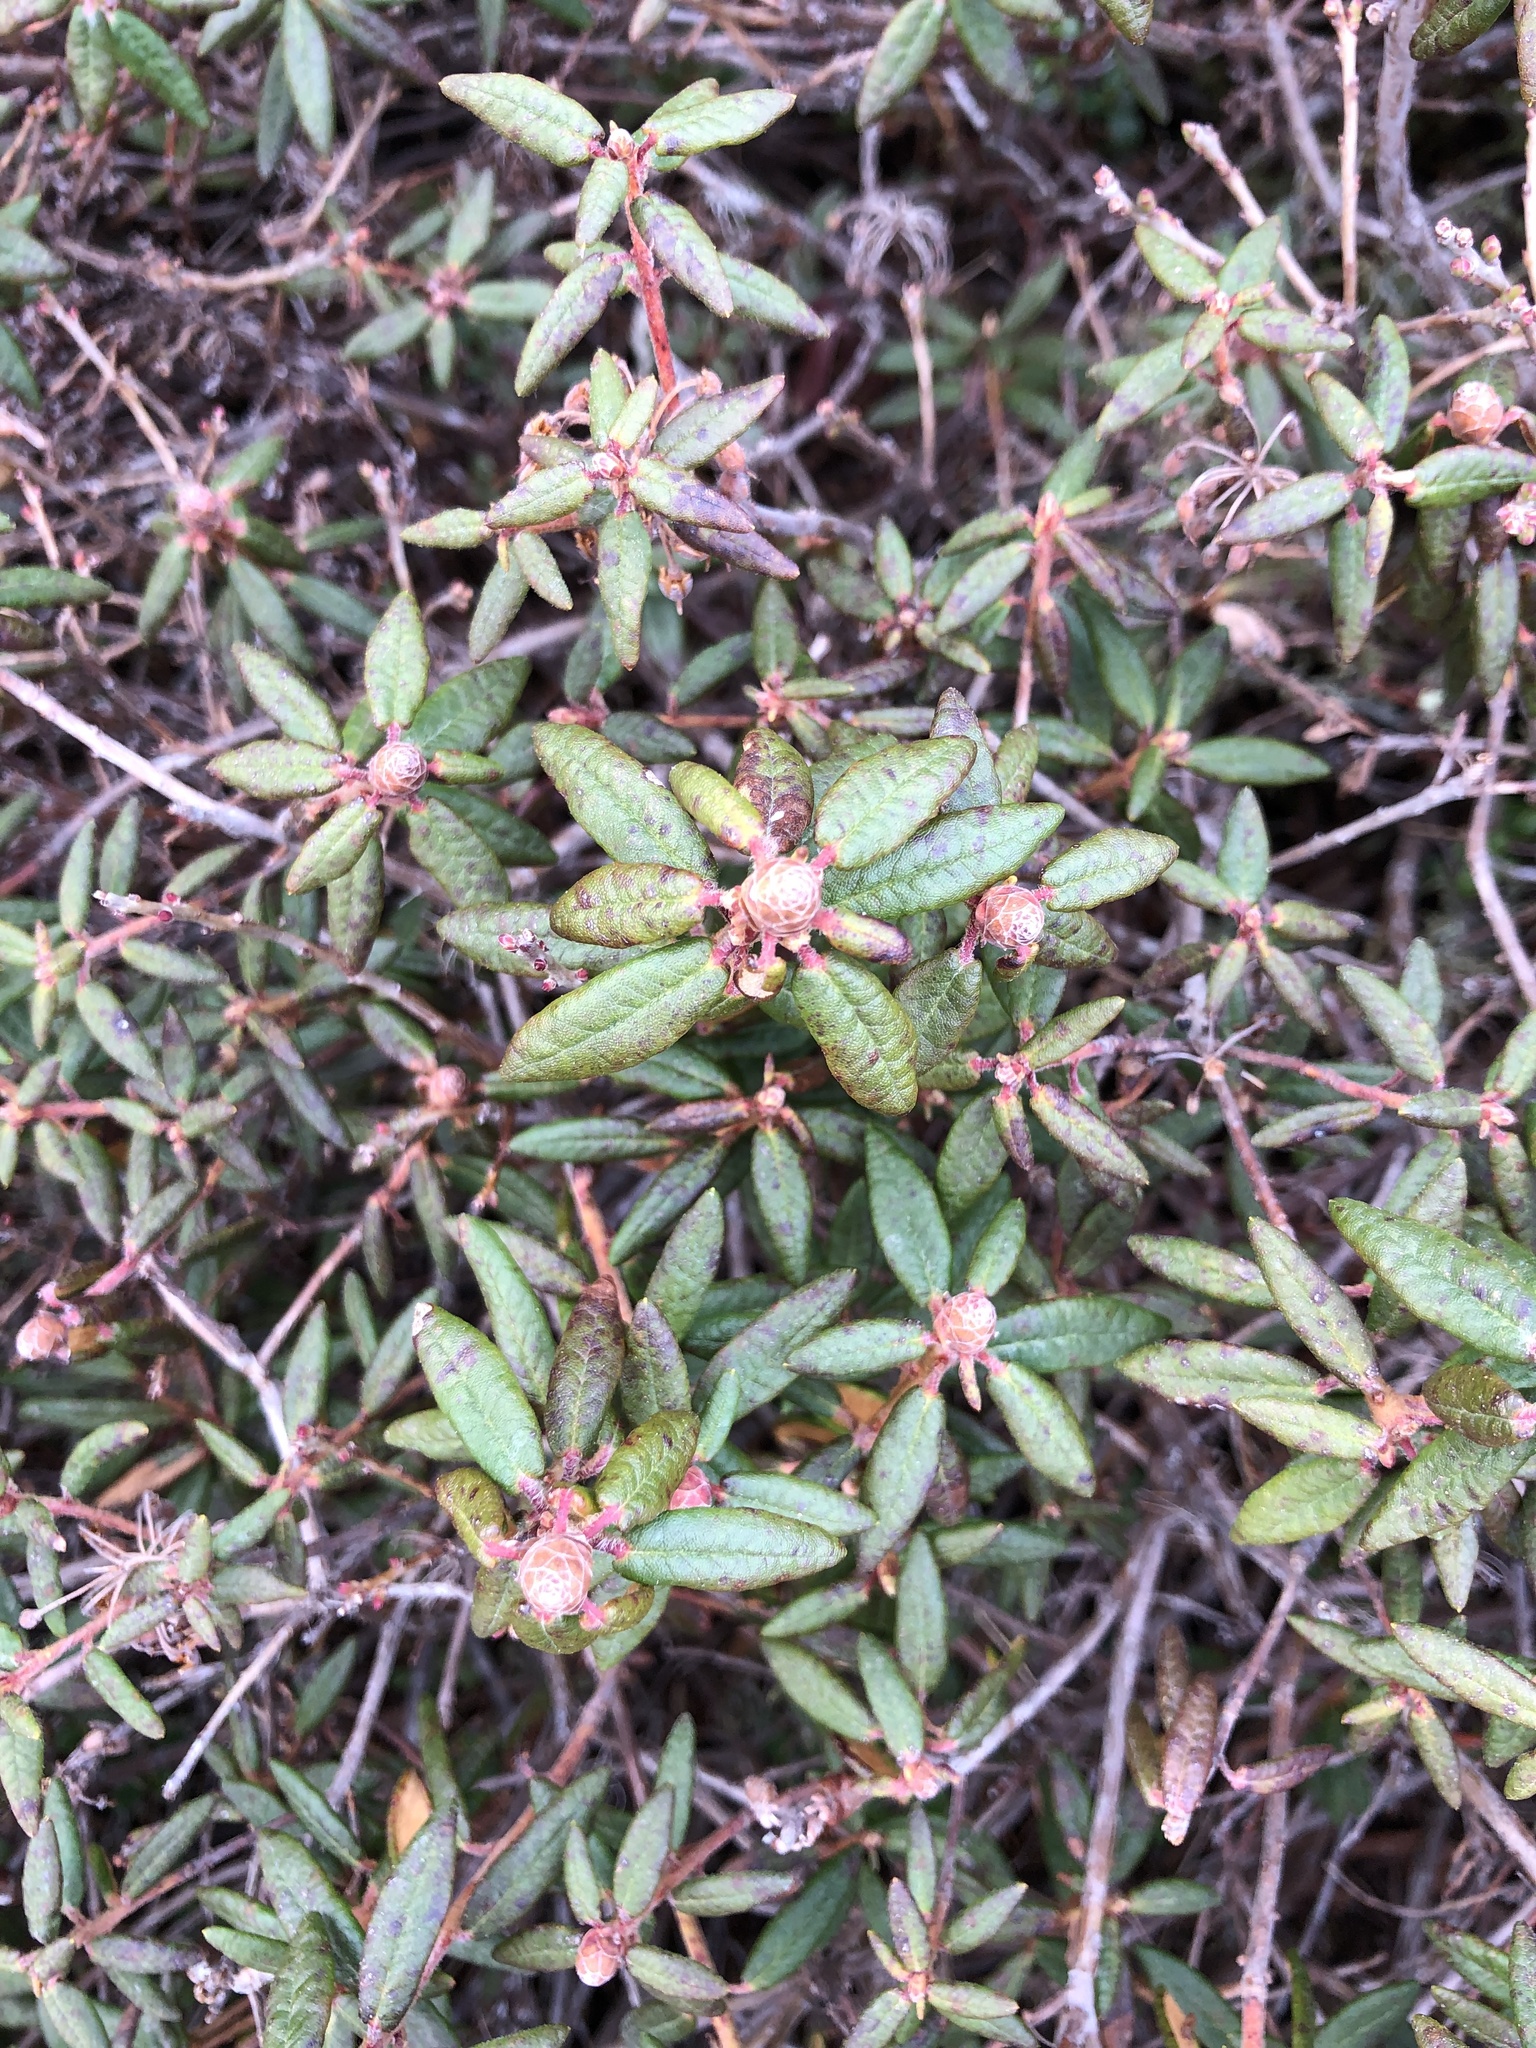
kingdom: Plantae
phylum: Tracheophyta
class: Magnoliopsida
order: Ericales
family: Ericaceae
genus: Rhododendron
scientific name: Rhododendron groenlandicum
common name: Bog labrador tea
